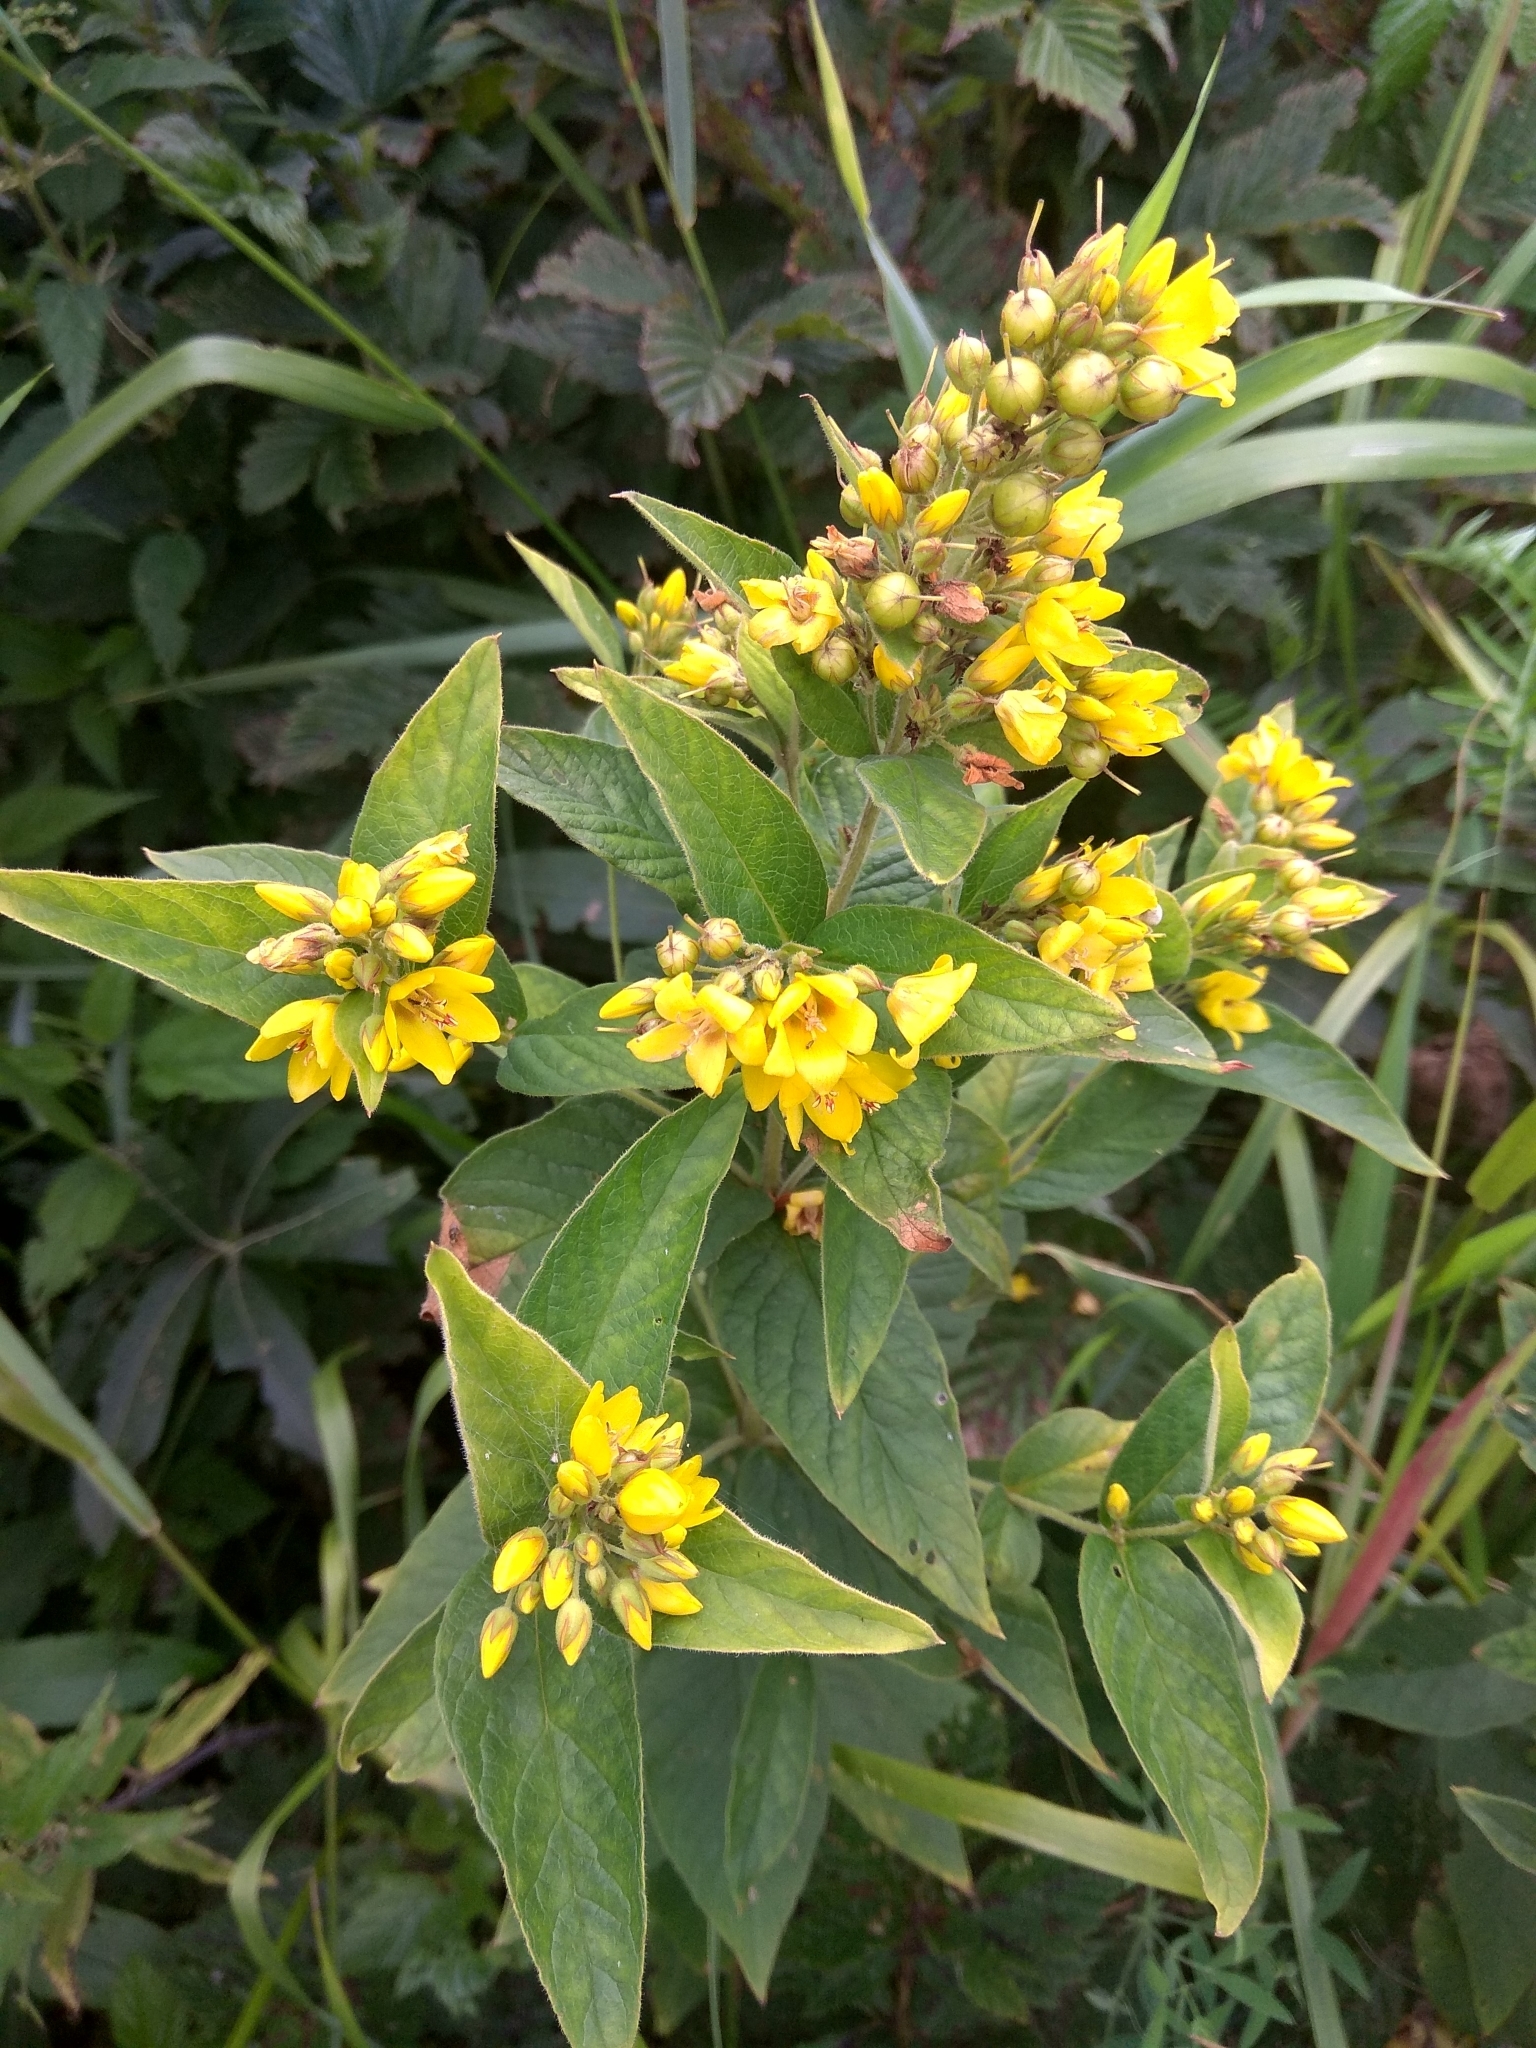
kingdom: Plantae
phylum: Tracheophyta
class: Magnoliopsida
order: Ericales
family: Primulaceae
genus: Lysimachia
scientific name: Lysimachia vulgaris
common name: Yellow loosestrife
